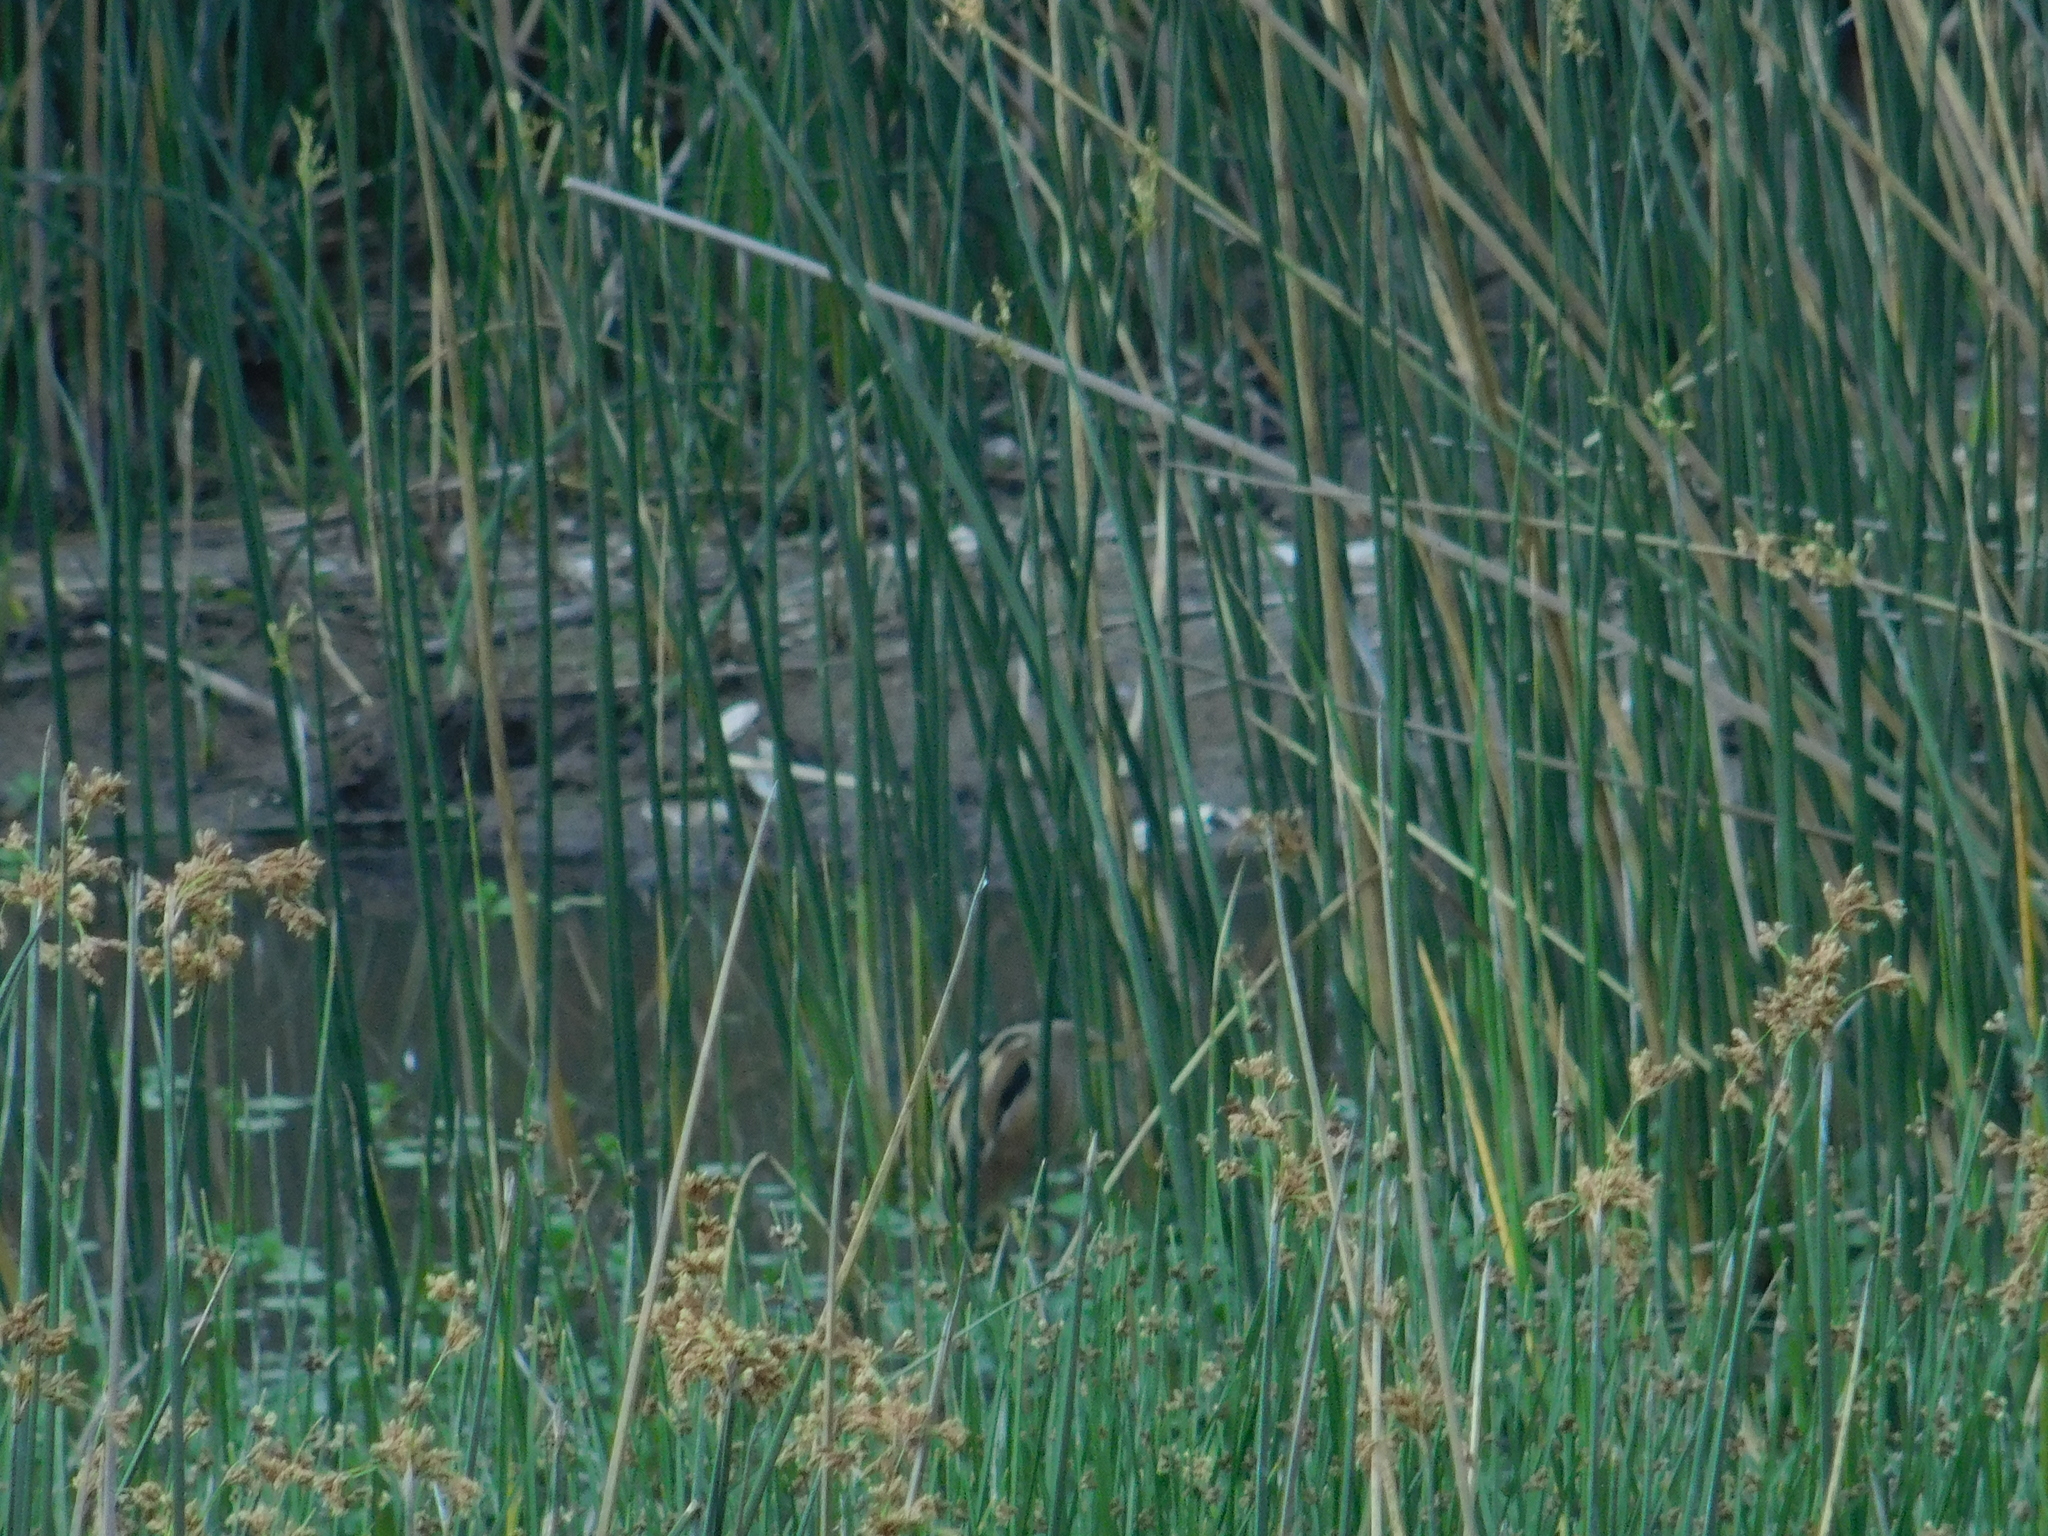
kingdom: Animalia
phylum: Chordata
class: Aves
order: Pelecaniformes
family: Ardeidae
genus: Ixobrychus
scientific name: Ixobrychus involucris
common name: Stripe-backed bittern
